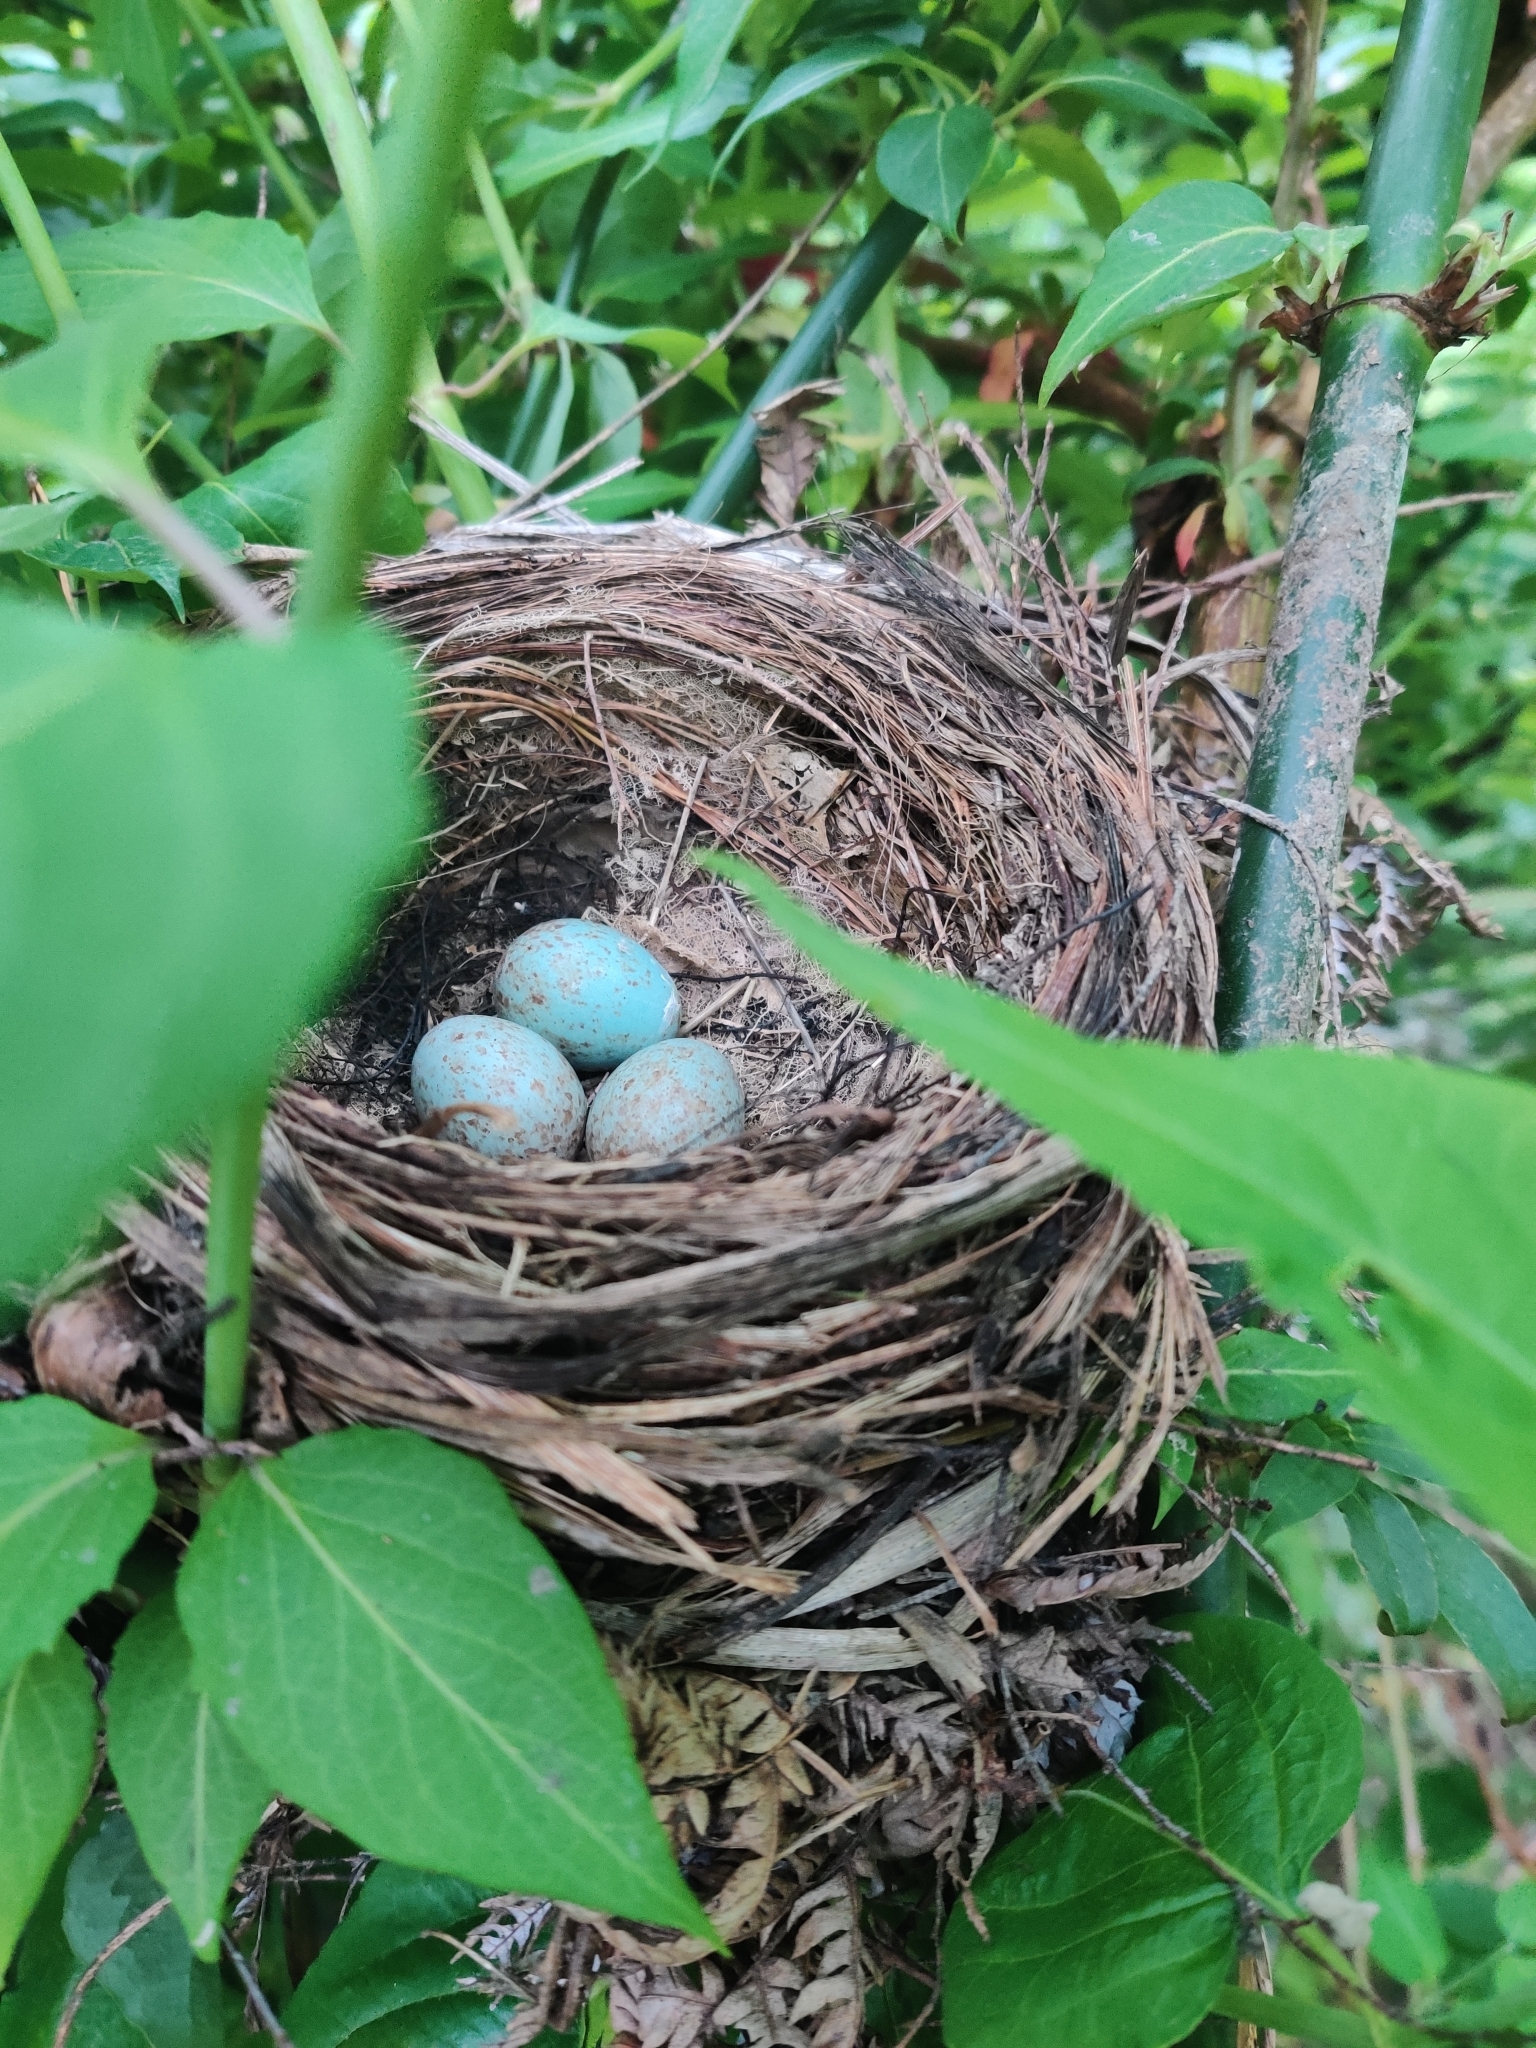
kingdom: Animalia
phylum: Chordata
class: Aves
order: Passeriformes
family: Turdidae
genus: Turdus
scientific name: Turdus merula
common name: Common blackbird
